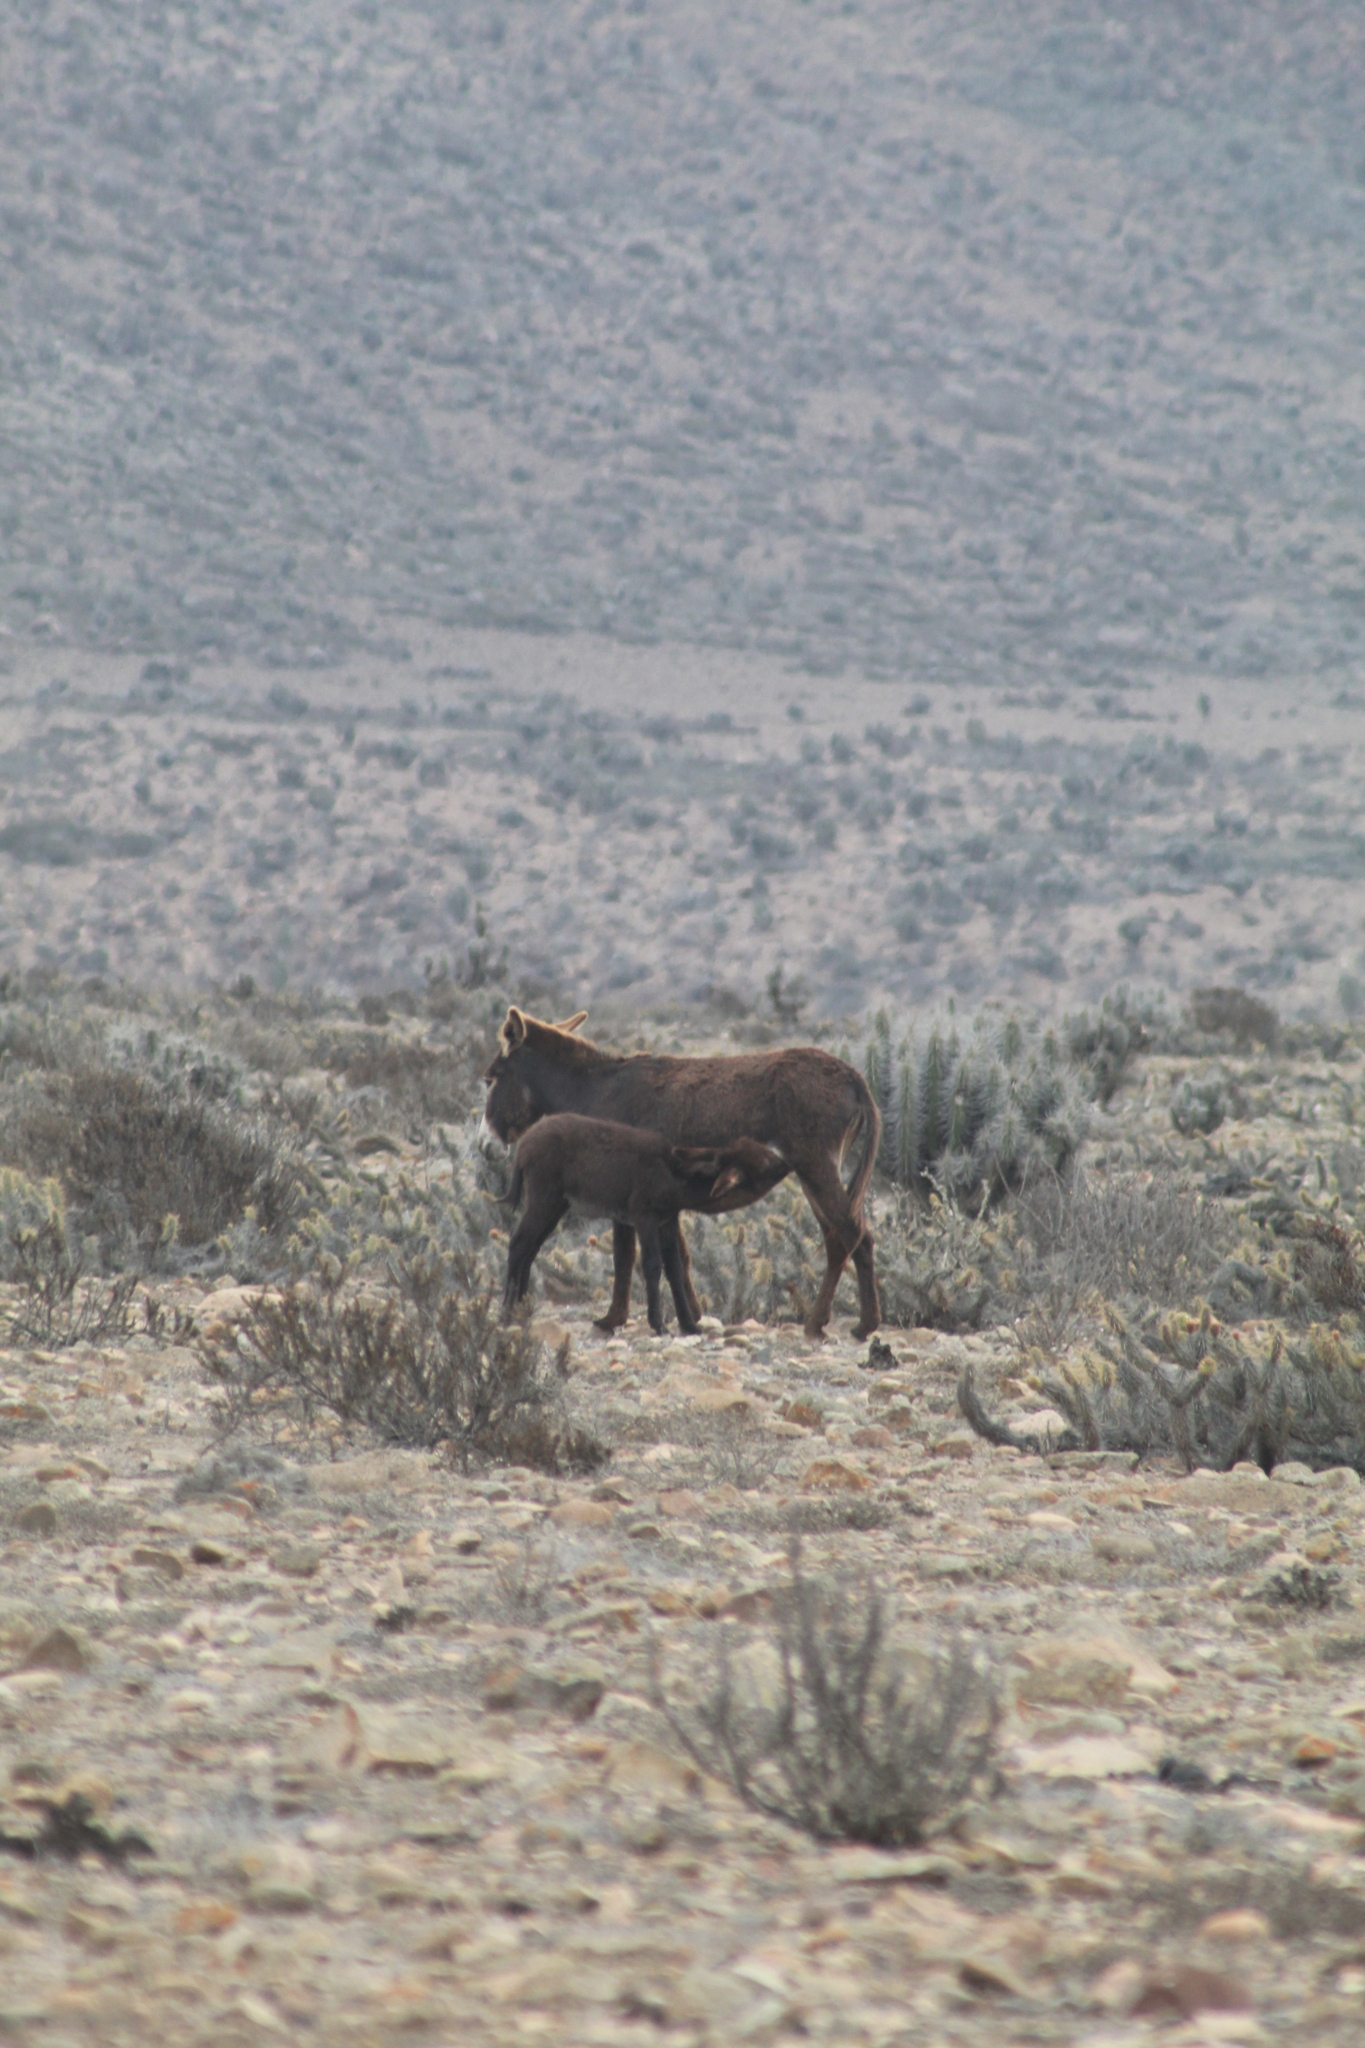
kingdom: Animalia
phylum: Chordata
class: Mammalia
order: Perissodactyla
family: Equidae
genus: Equus
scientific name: Equus asinus
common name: Ass
